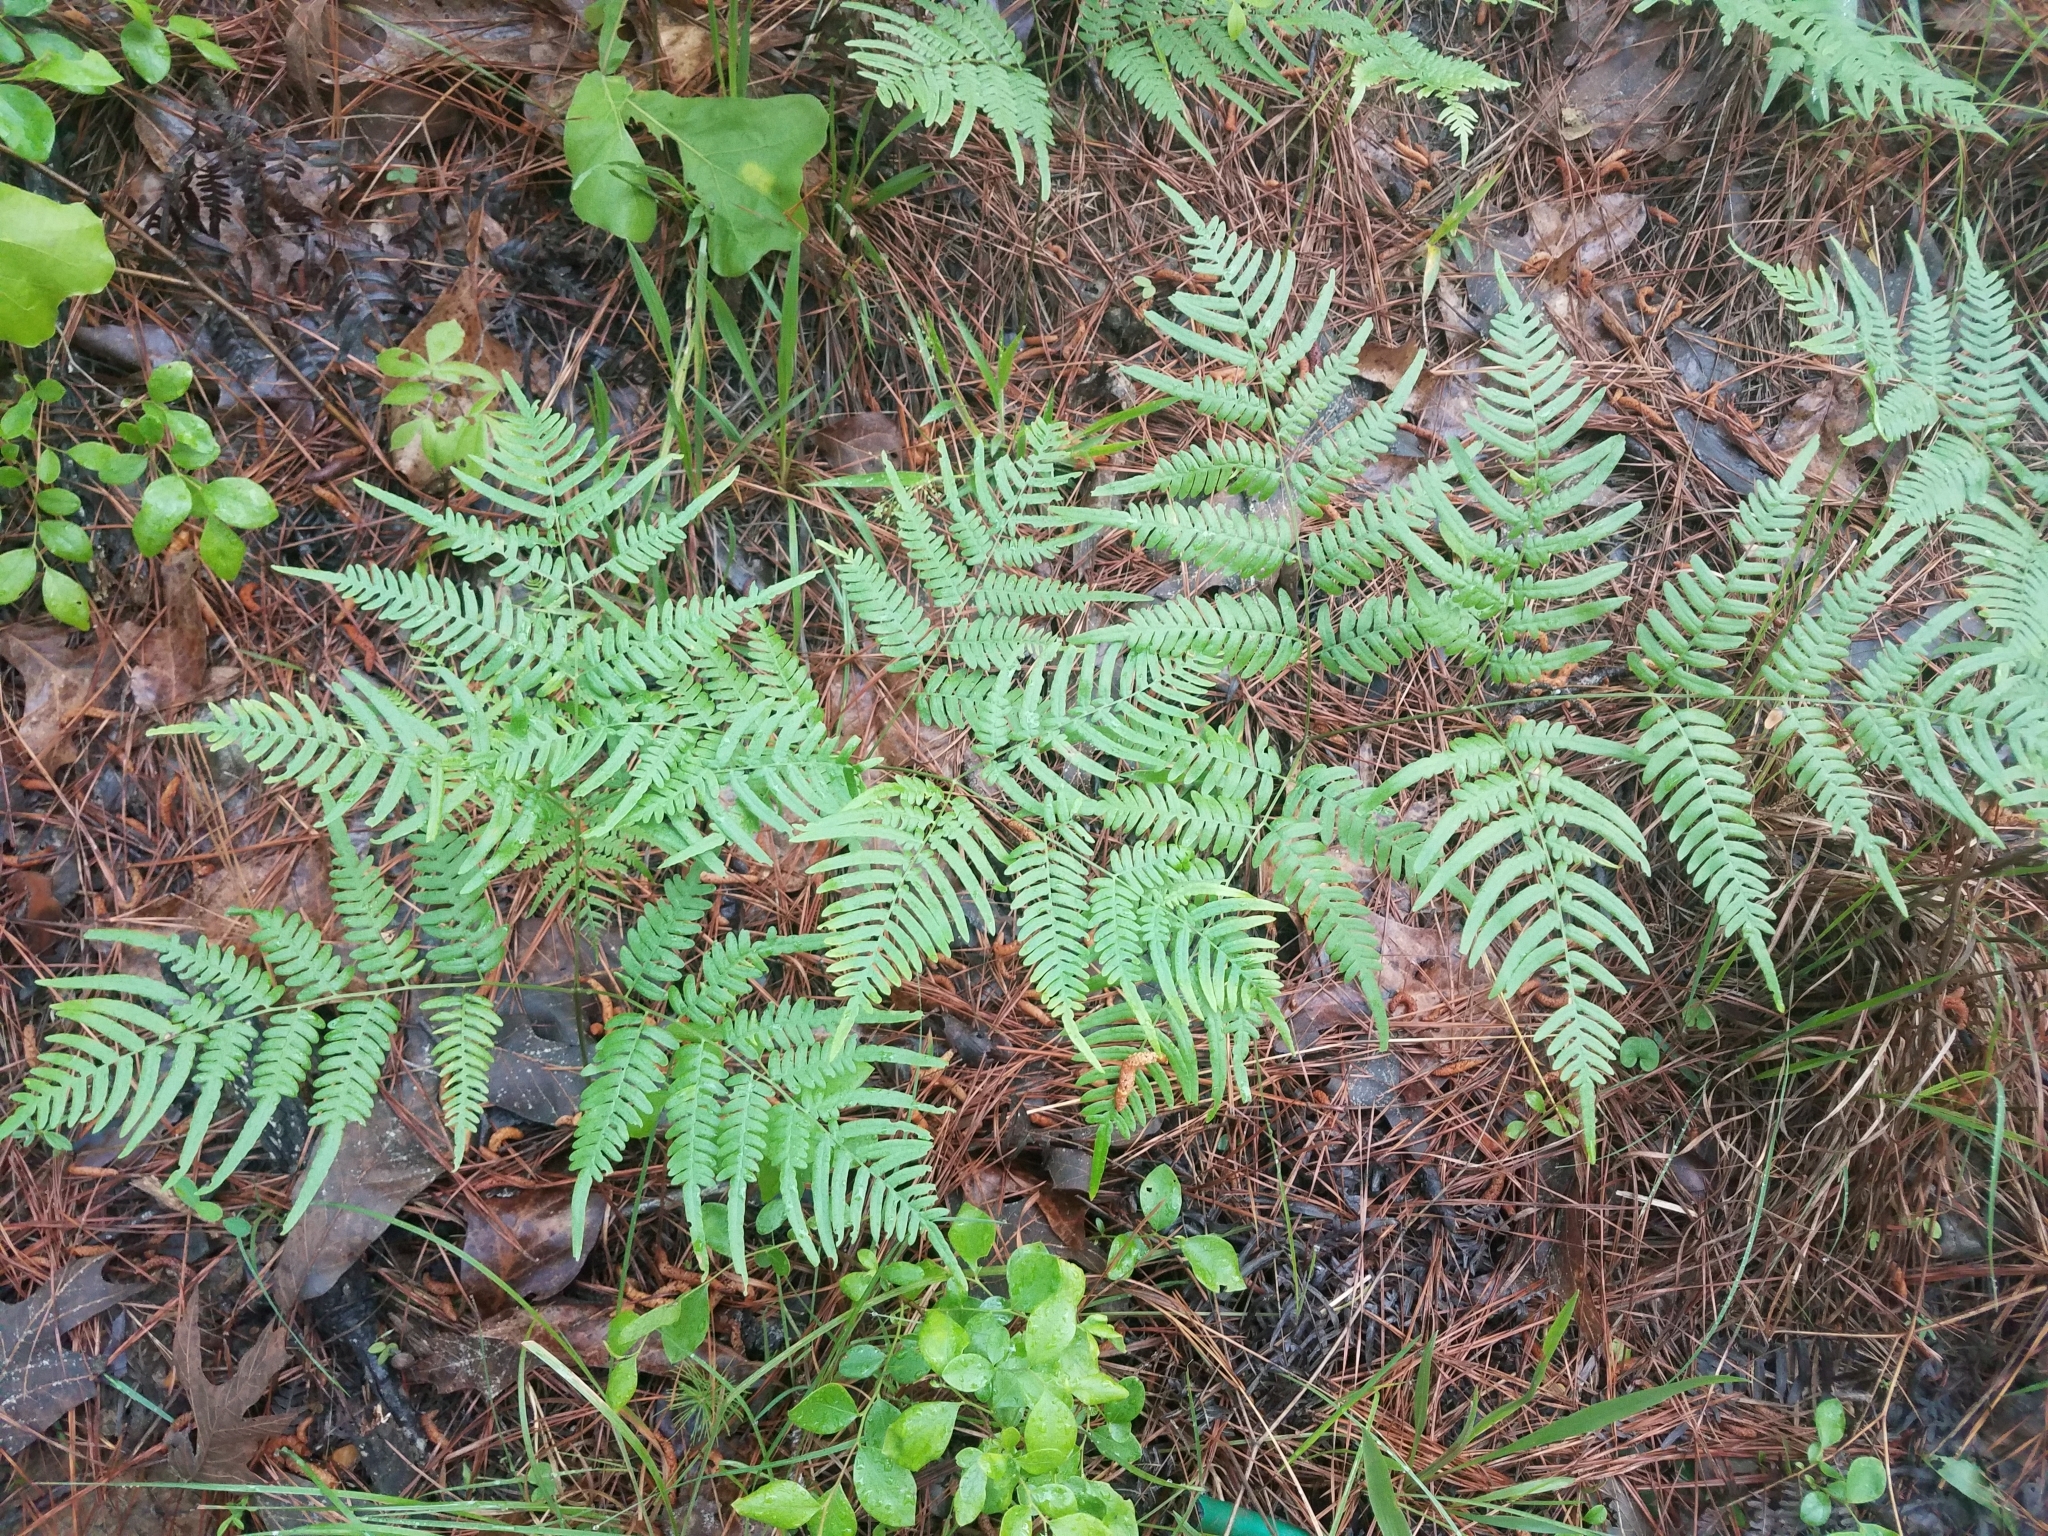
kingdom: Plantae
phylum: Tracheophyta
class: Polypodiopsida
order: Polypodiales
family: Dennstaedtiaceae
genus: Pteridium
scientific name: Pteridium aquilinum
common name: Bracken
